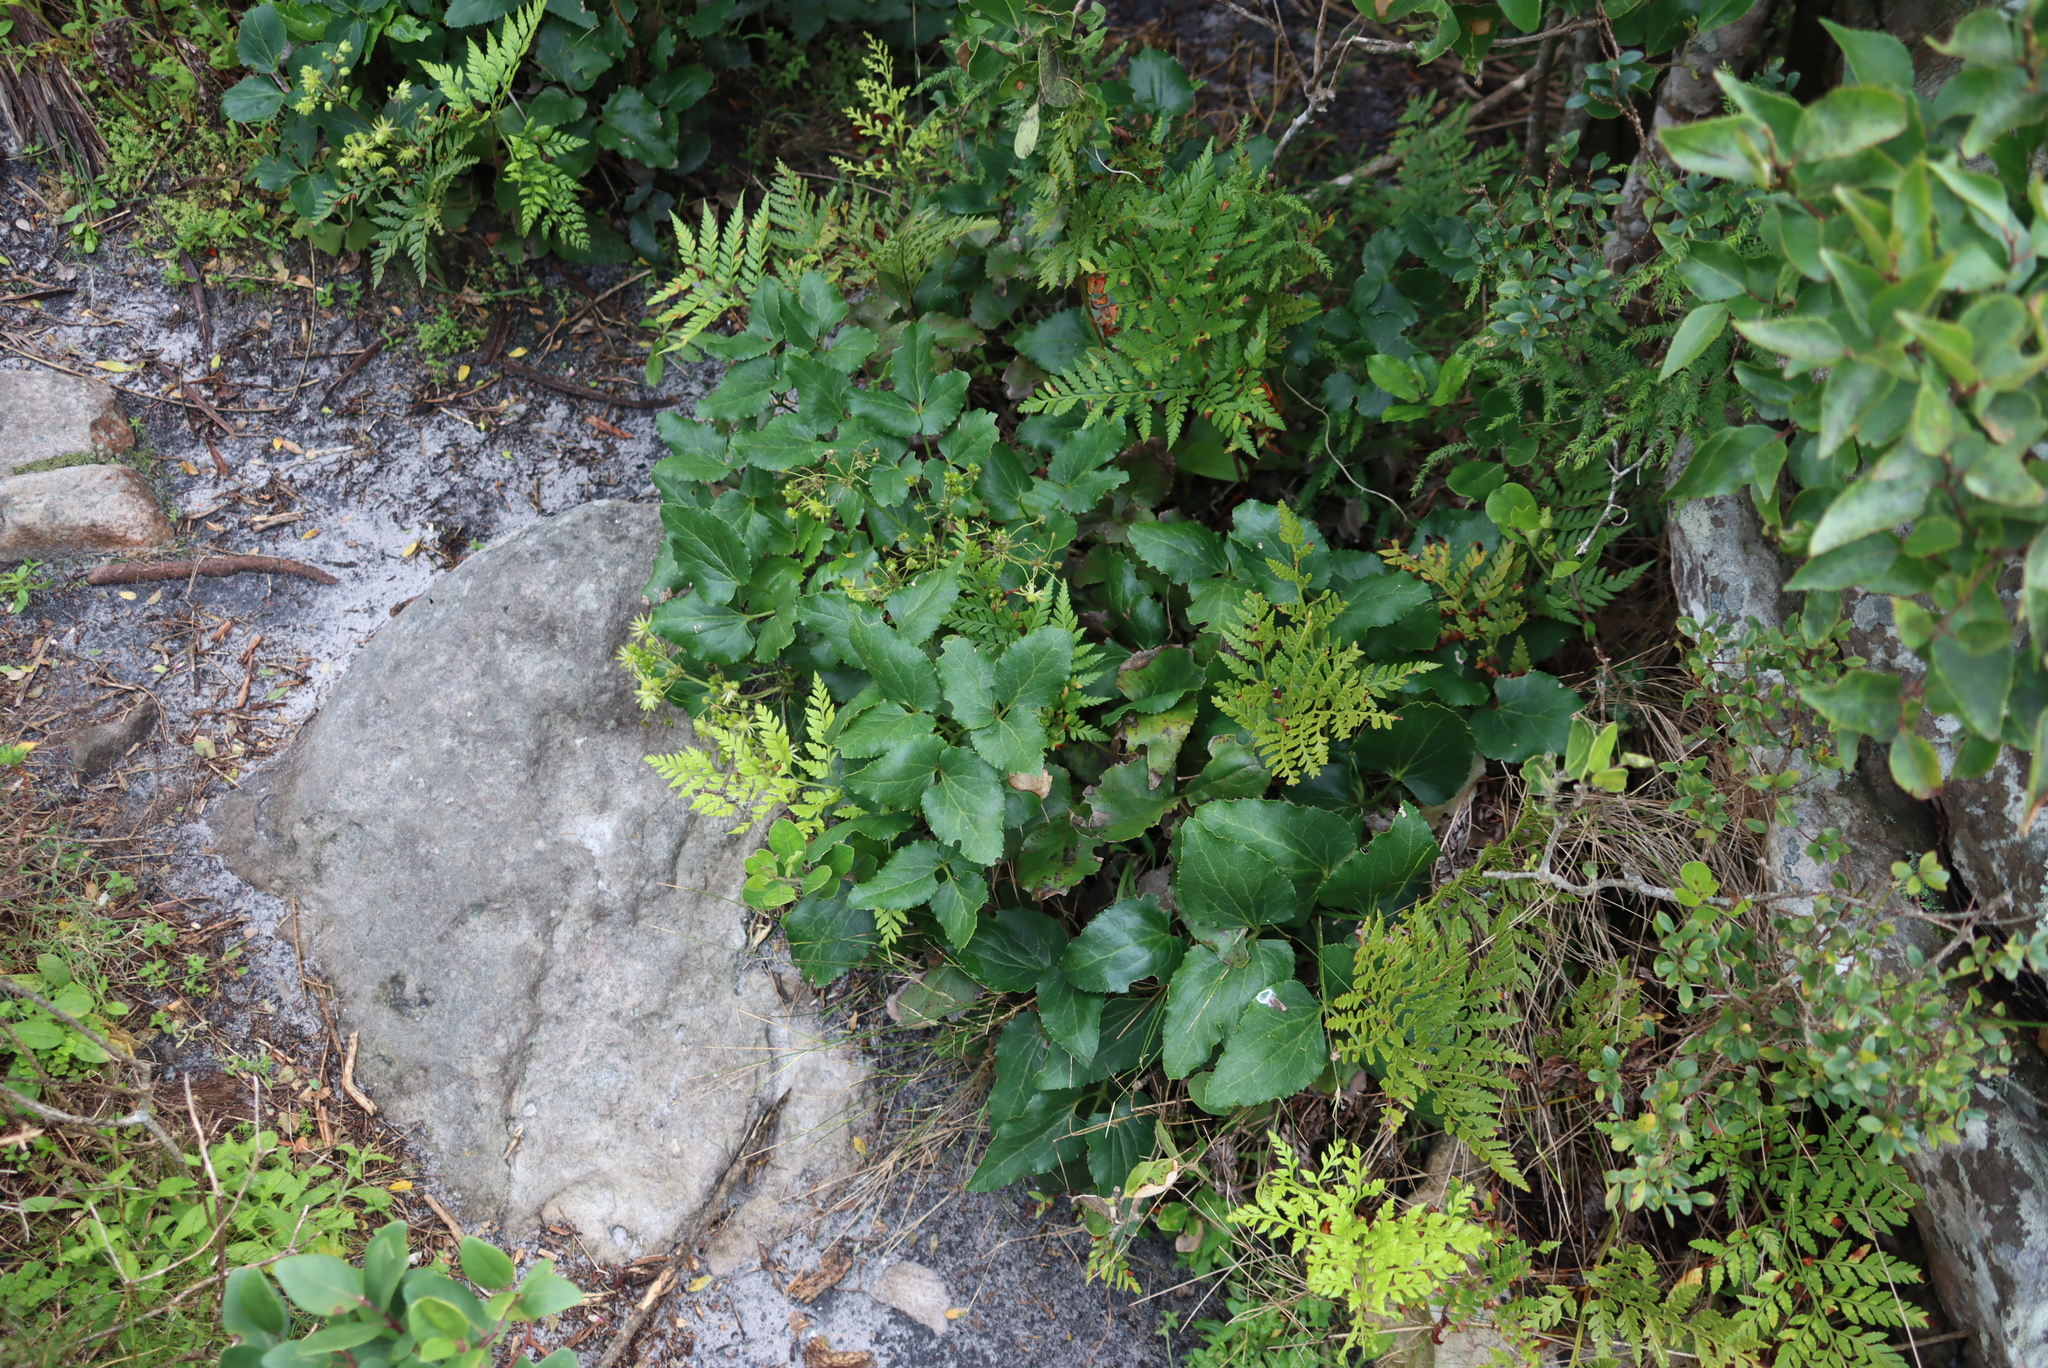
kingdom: Plantae
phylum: Tracheophyta
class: Magnoliopsida
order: Ranunculales
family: Ranunculaceae
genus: Knowltonia
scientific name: Knowltonia vesicatoria
